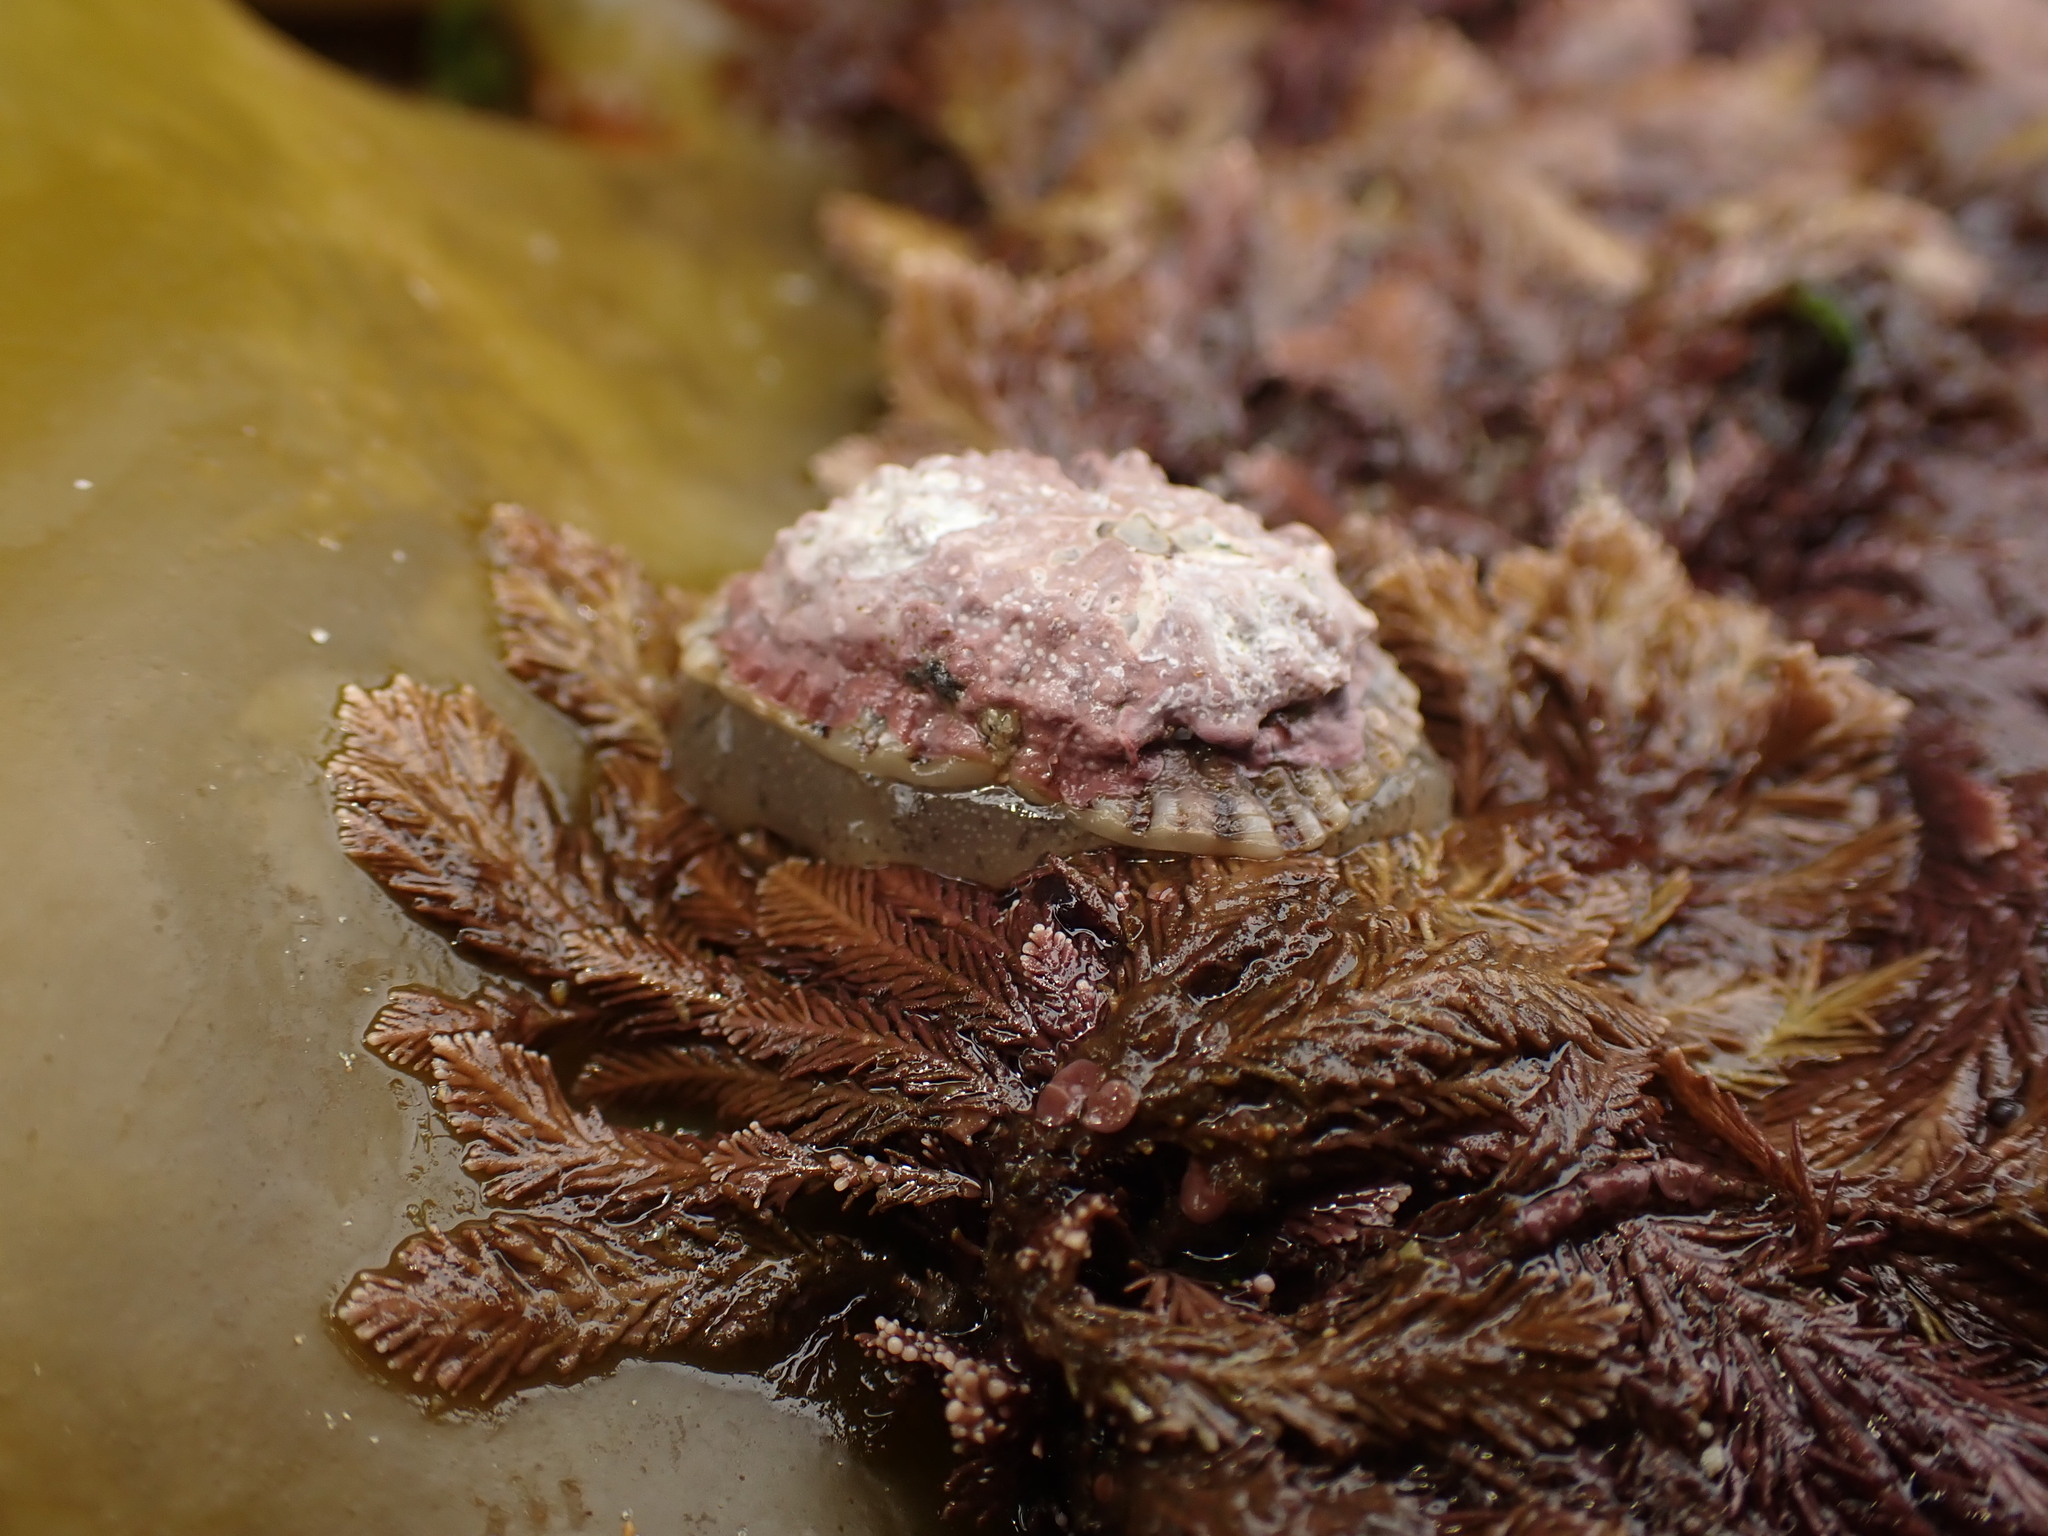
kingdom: Animalia
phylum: Mollusca
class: Gastropoda
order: Siphonariida
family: Siphonariidae
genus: Siphonaria
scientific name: Siphonaria australis
